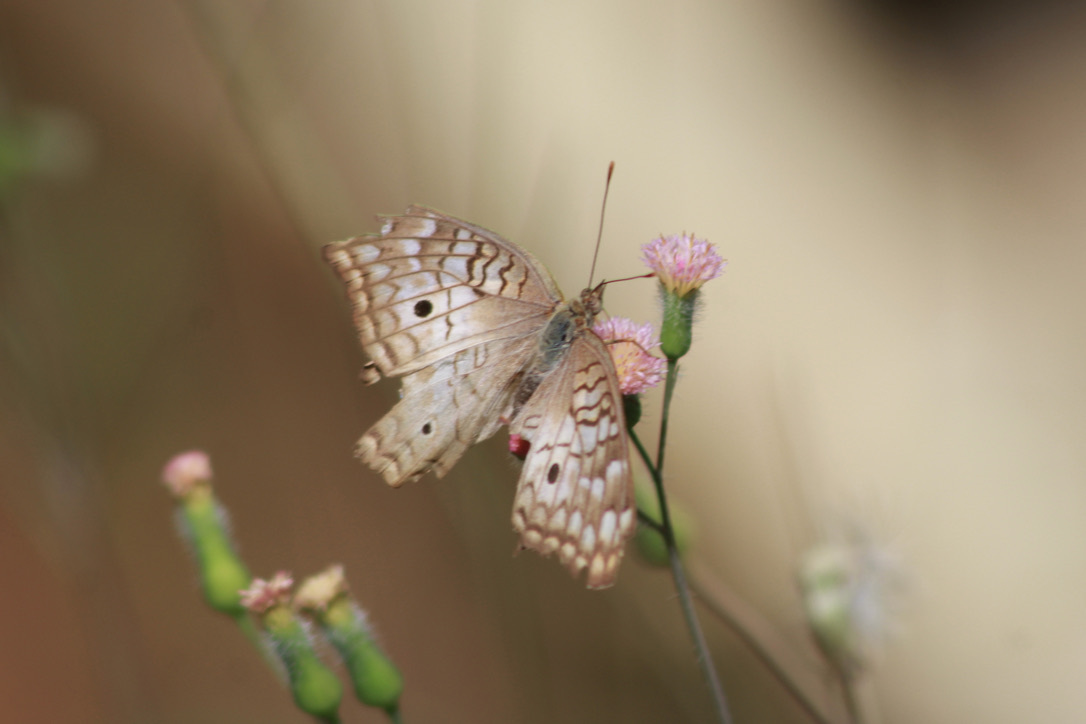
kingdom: Animalia
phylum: Arthropoda
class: Insecta
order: Lepidoptera
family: Nymphalidae
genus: Anartia
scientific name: Anartia jatrophae
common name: White peacock
